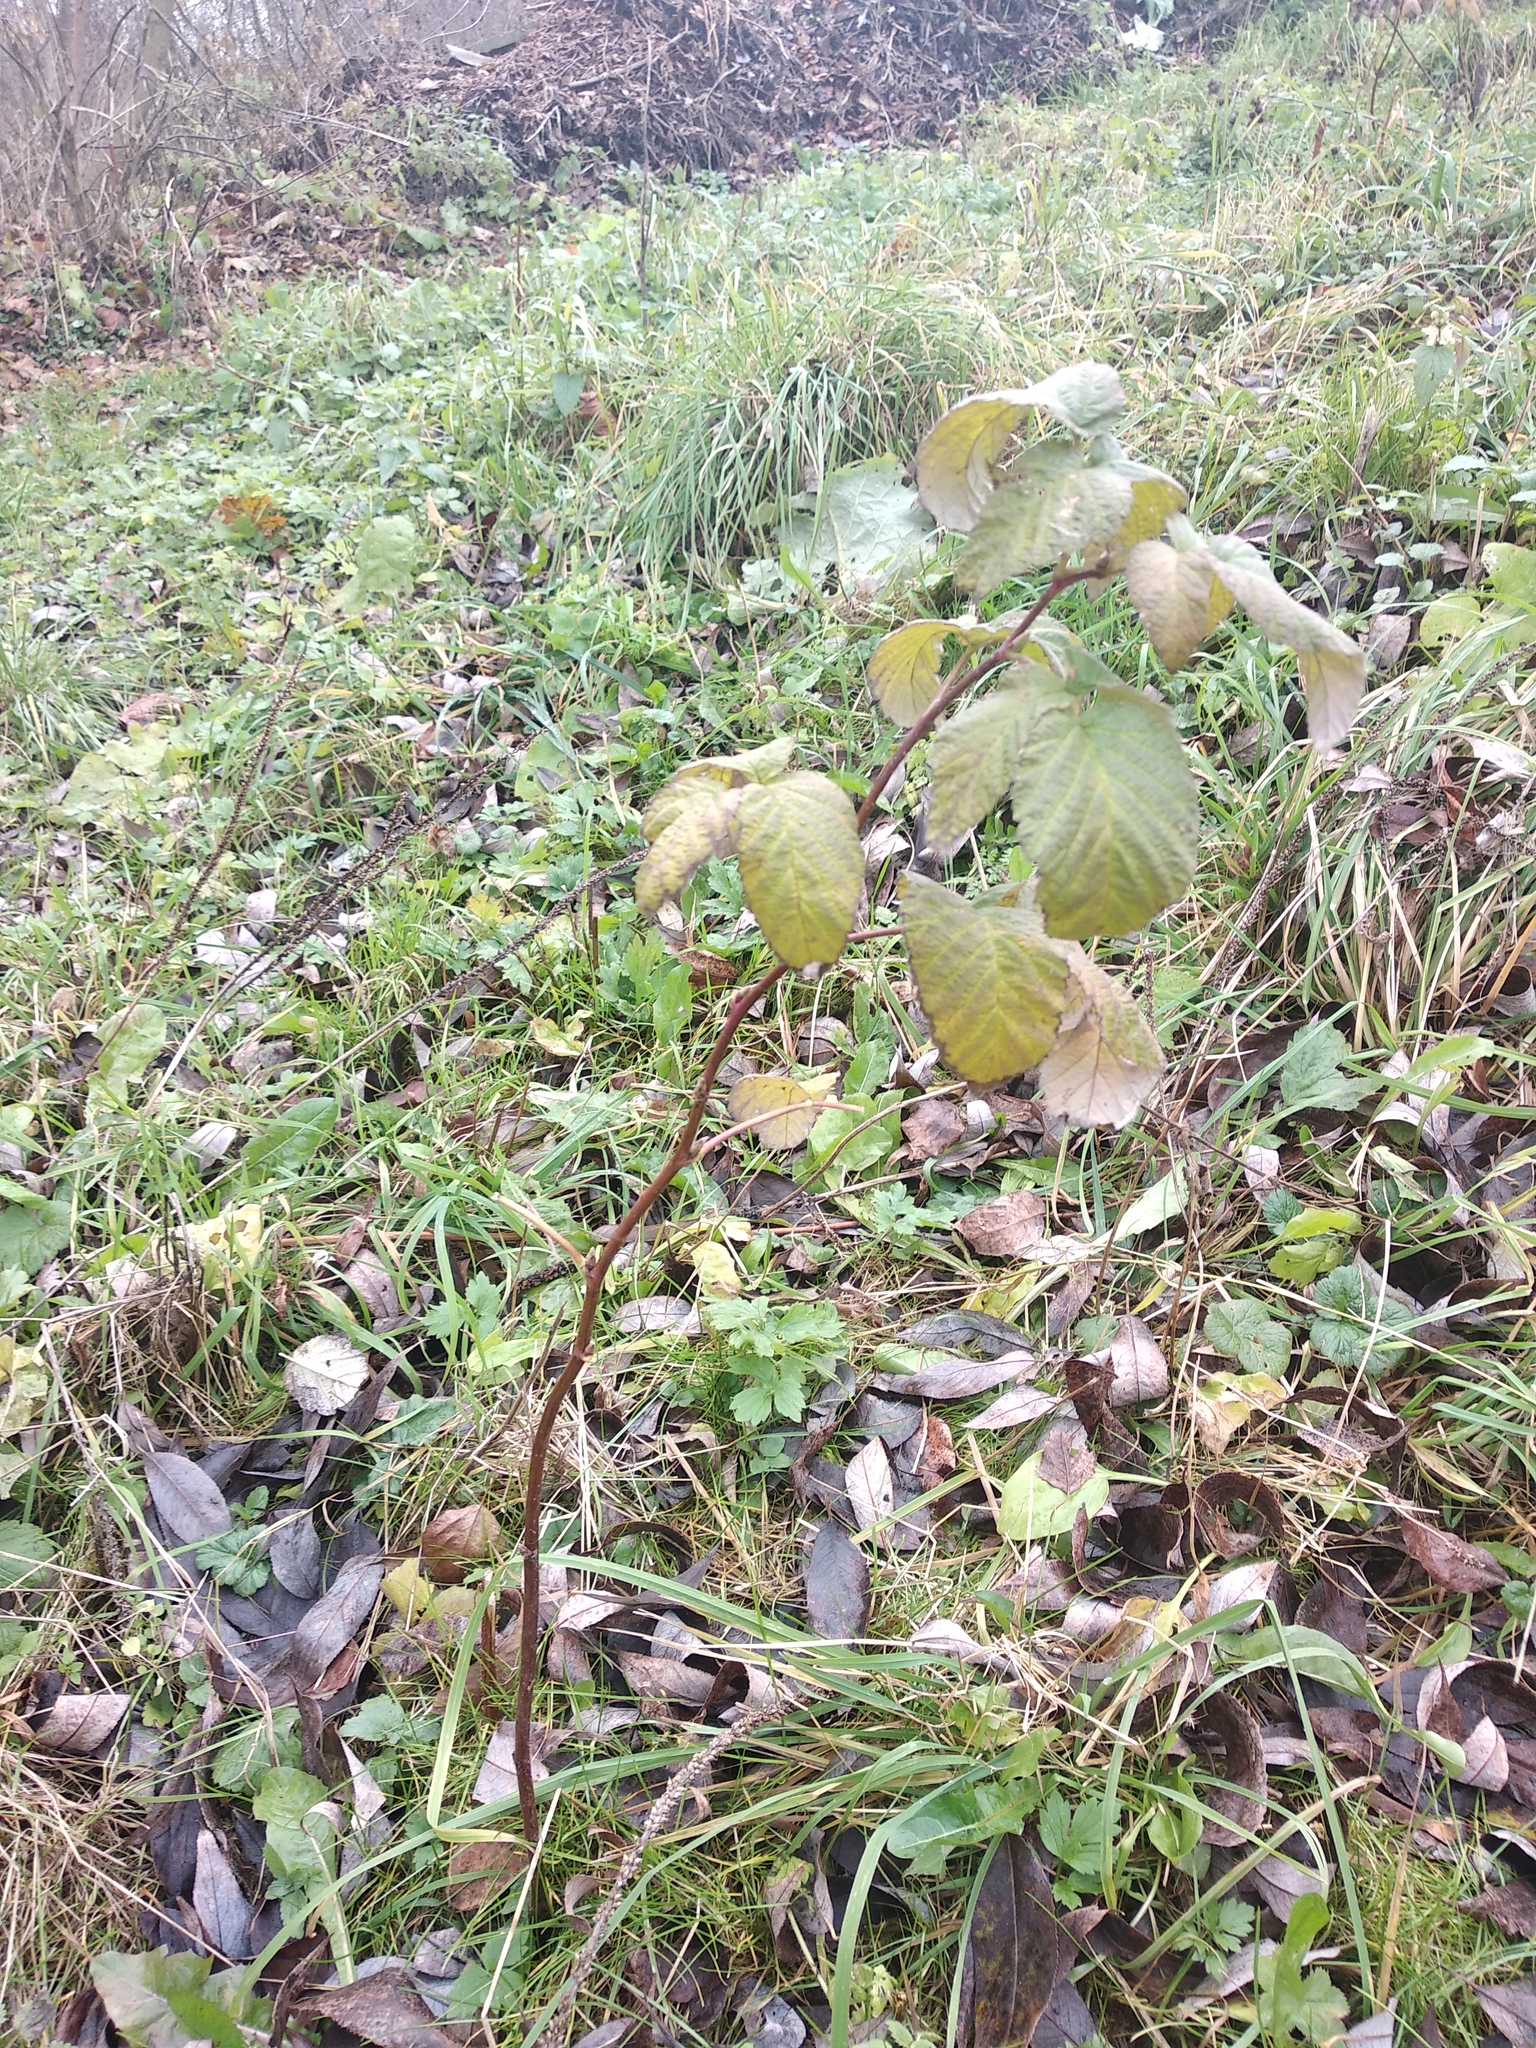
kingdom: Plantae
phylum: Tracheophyta
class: Magnoliopsida
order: Rosales
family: Rosaceae
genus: Rubus
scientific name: Rubus idaeus
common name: Raspberry
